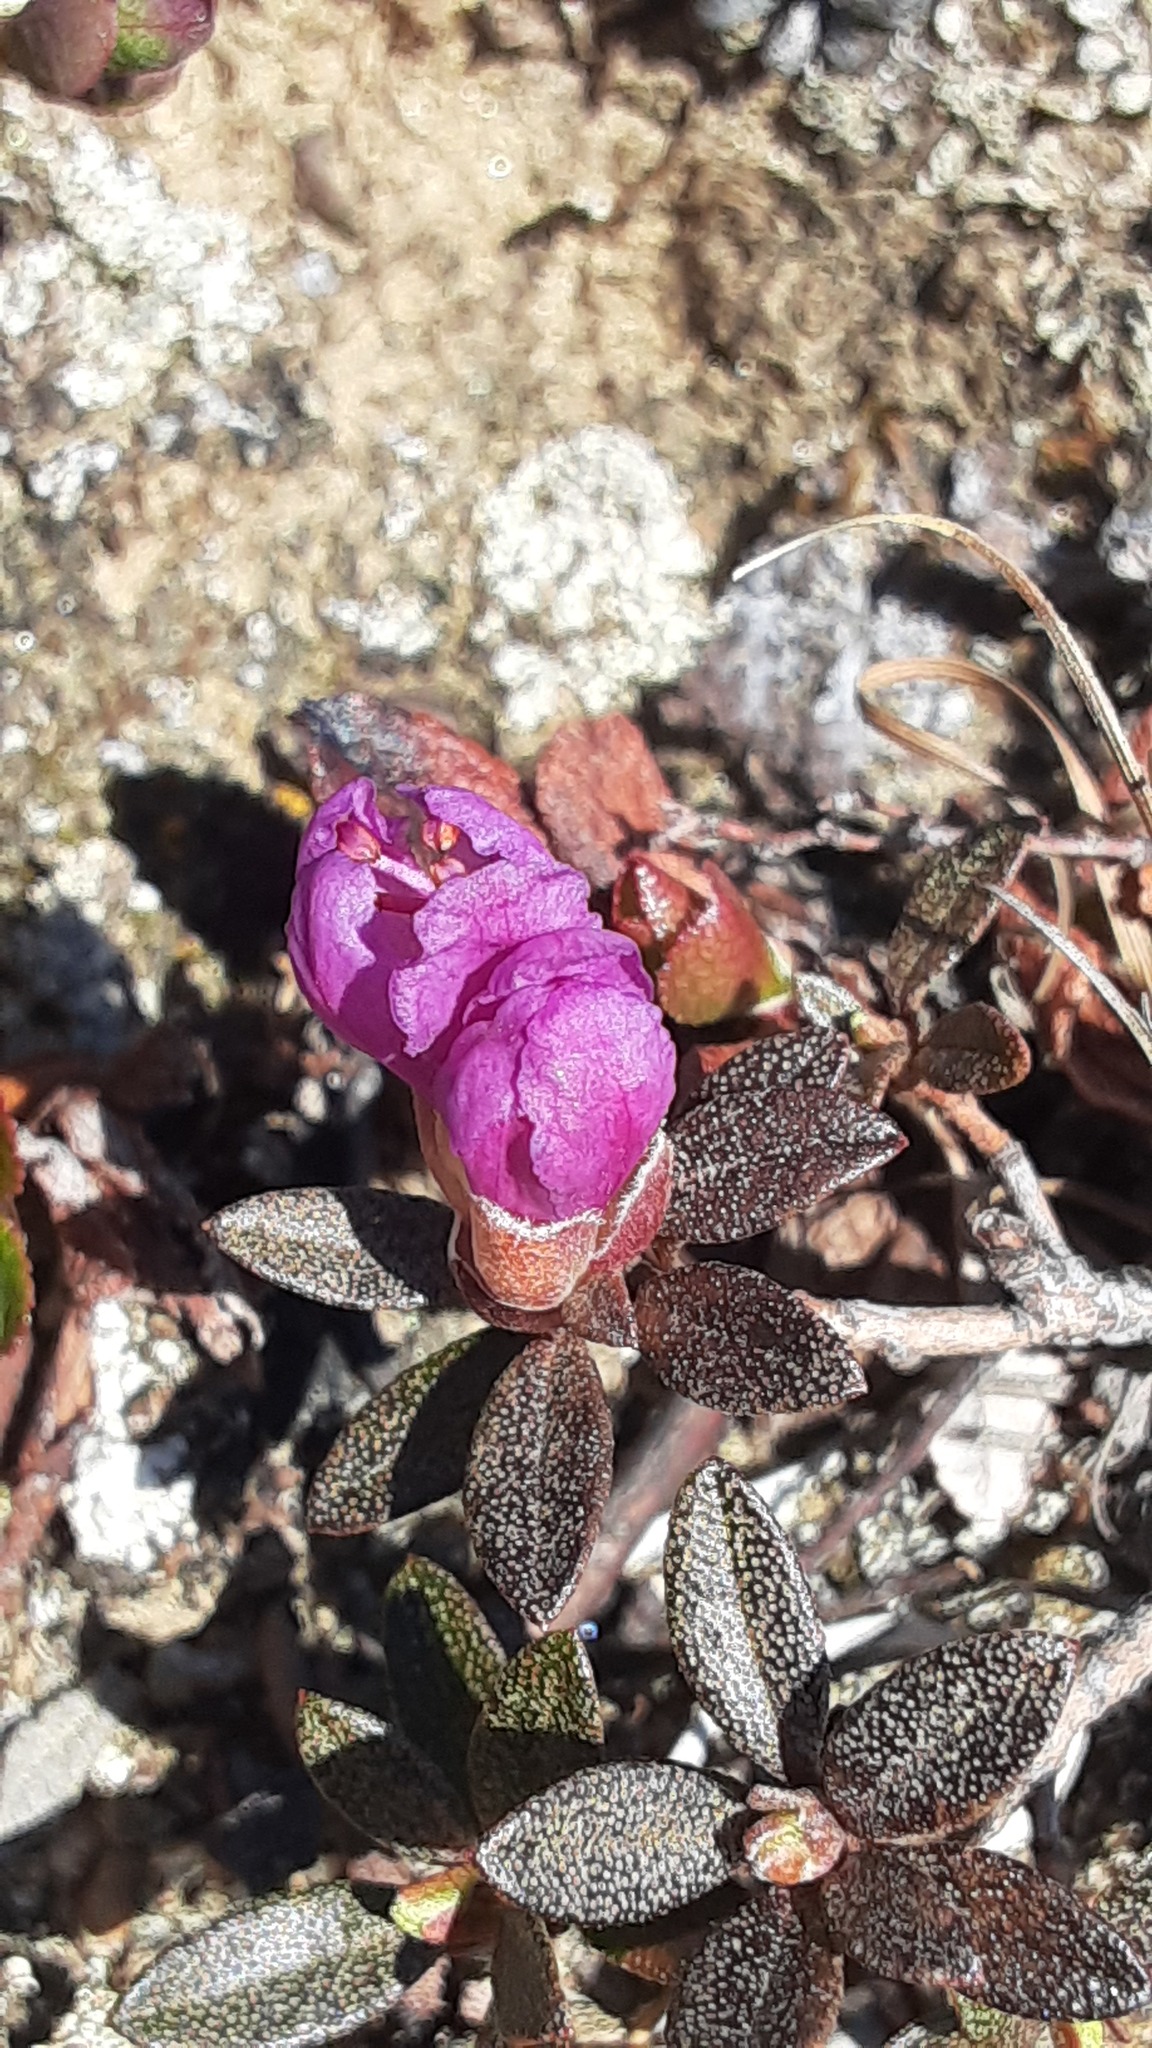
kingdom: Plantae
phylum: Tracheophyta
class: Magnoliopsida
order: Ericales
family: Ericaceae
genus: Rhododendron
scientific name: Rhododendron lapponicum
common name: Lapland rhododendron
